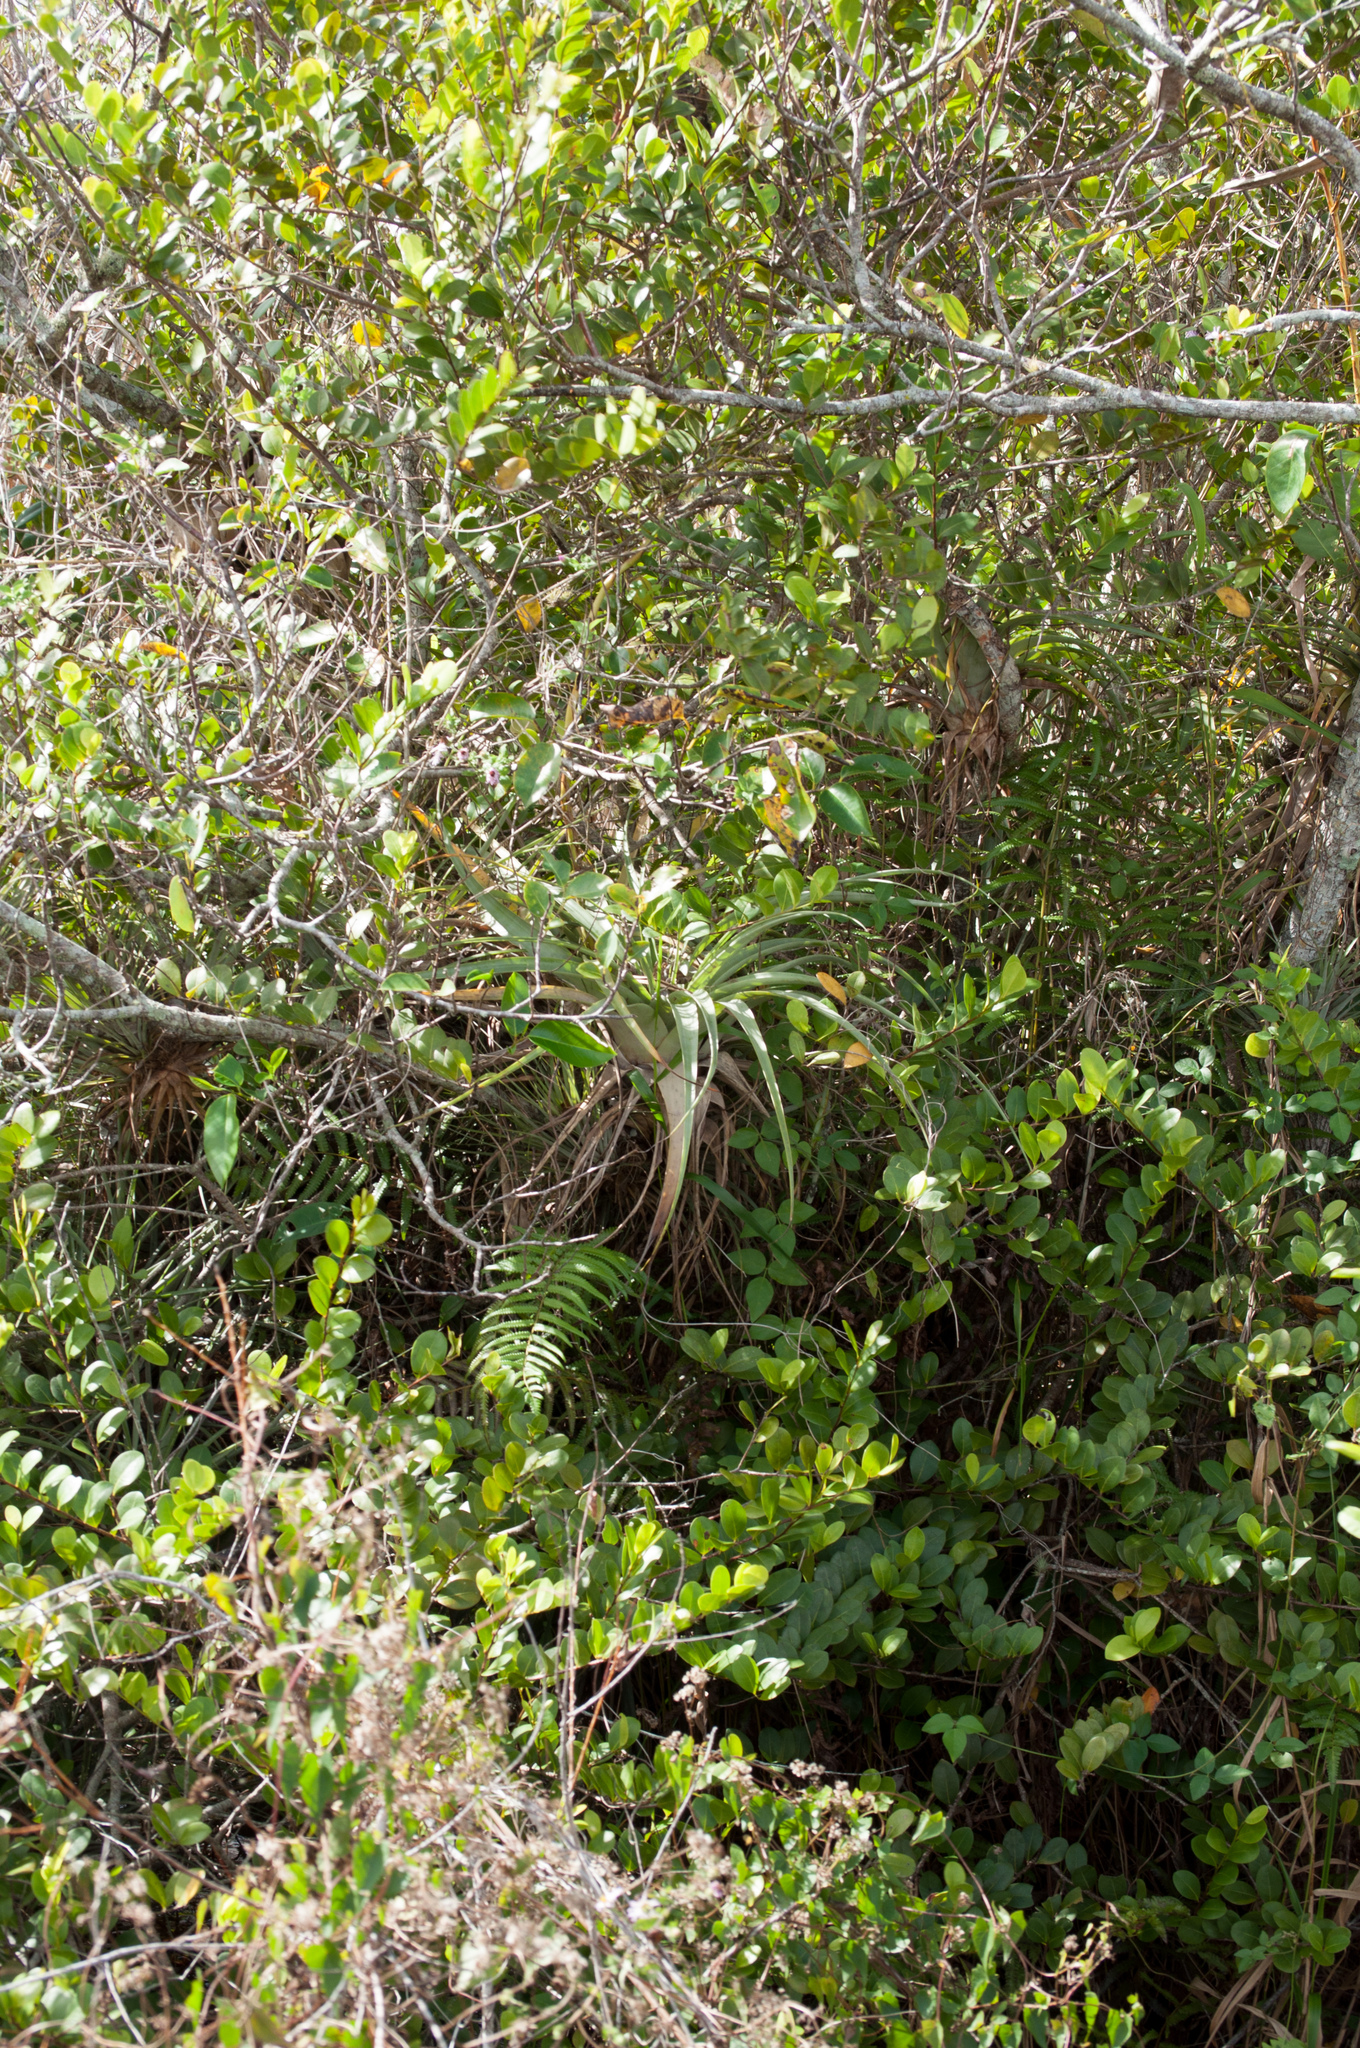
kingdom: Plantae
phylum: Tracheophyta
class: Liliopsida
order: Poales
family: Bromeliaceae
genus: Tillandsia
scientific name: Tillandsia utriculata
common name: Wild pine
